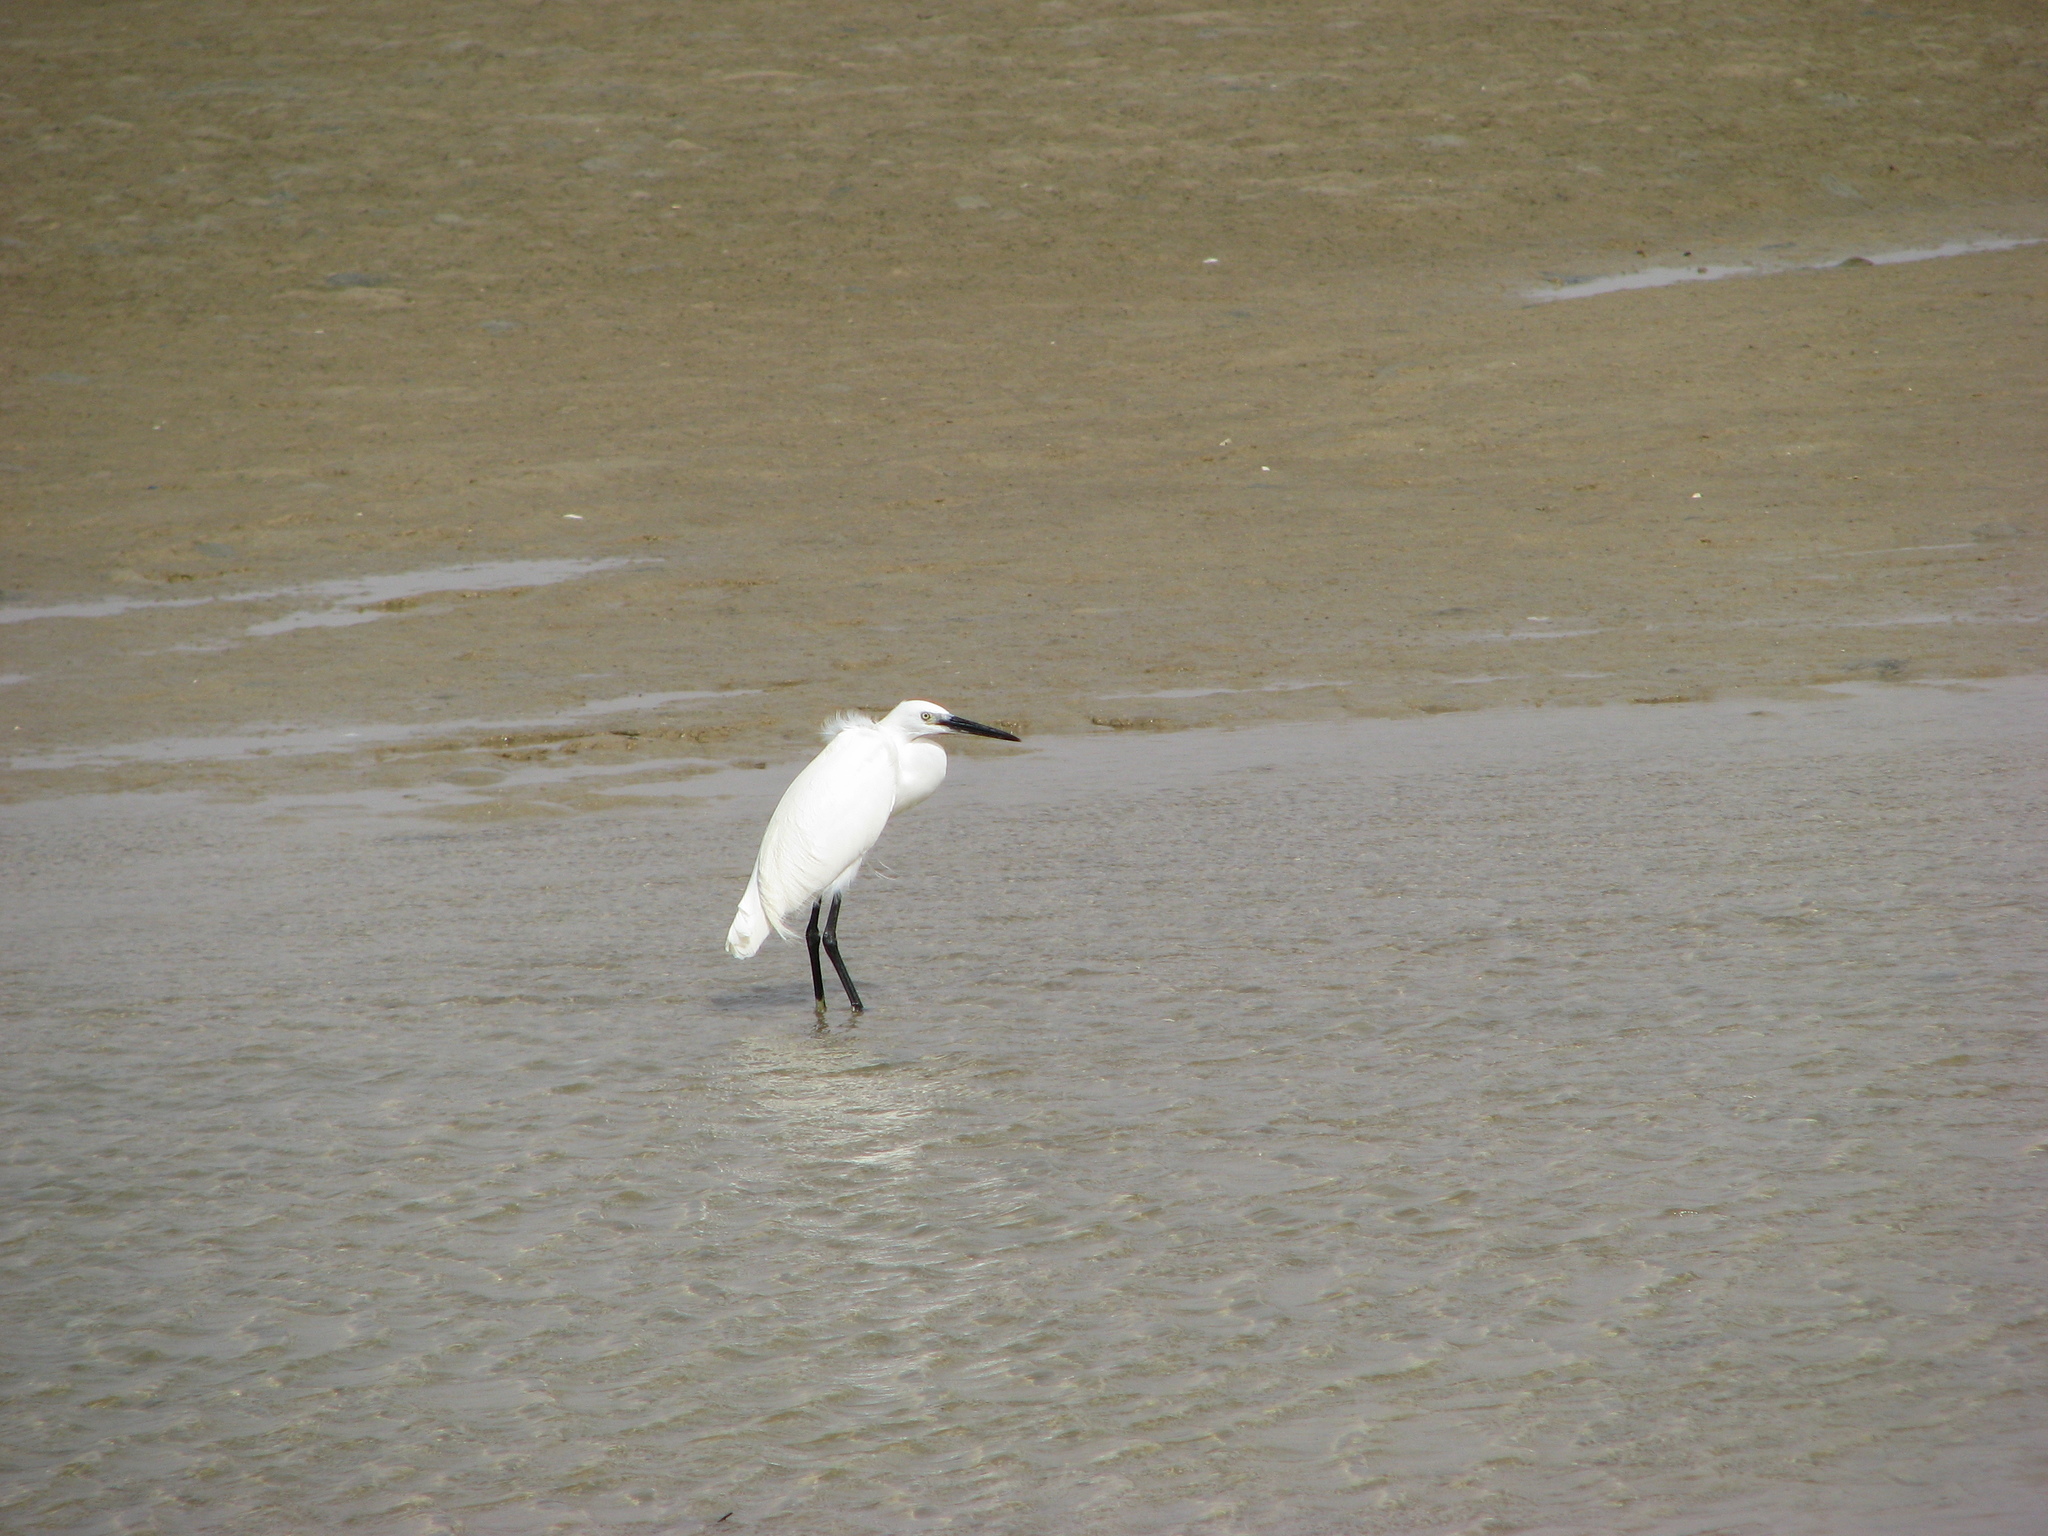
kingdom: Animalia
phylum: Chordata
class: Aves
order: Pelecaniformes
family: Ardeidae
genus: Egretta
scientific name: Egretta garzetta
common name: Little egret
